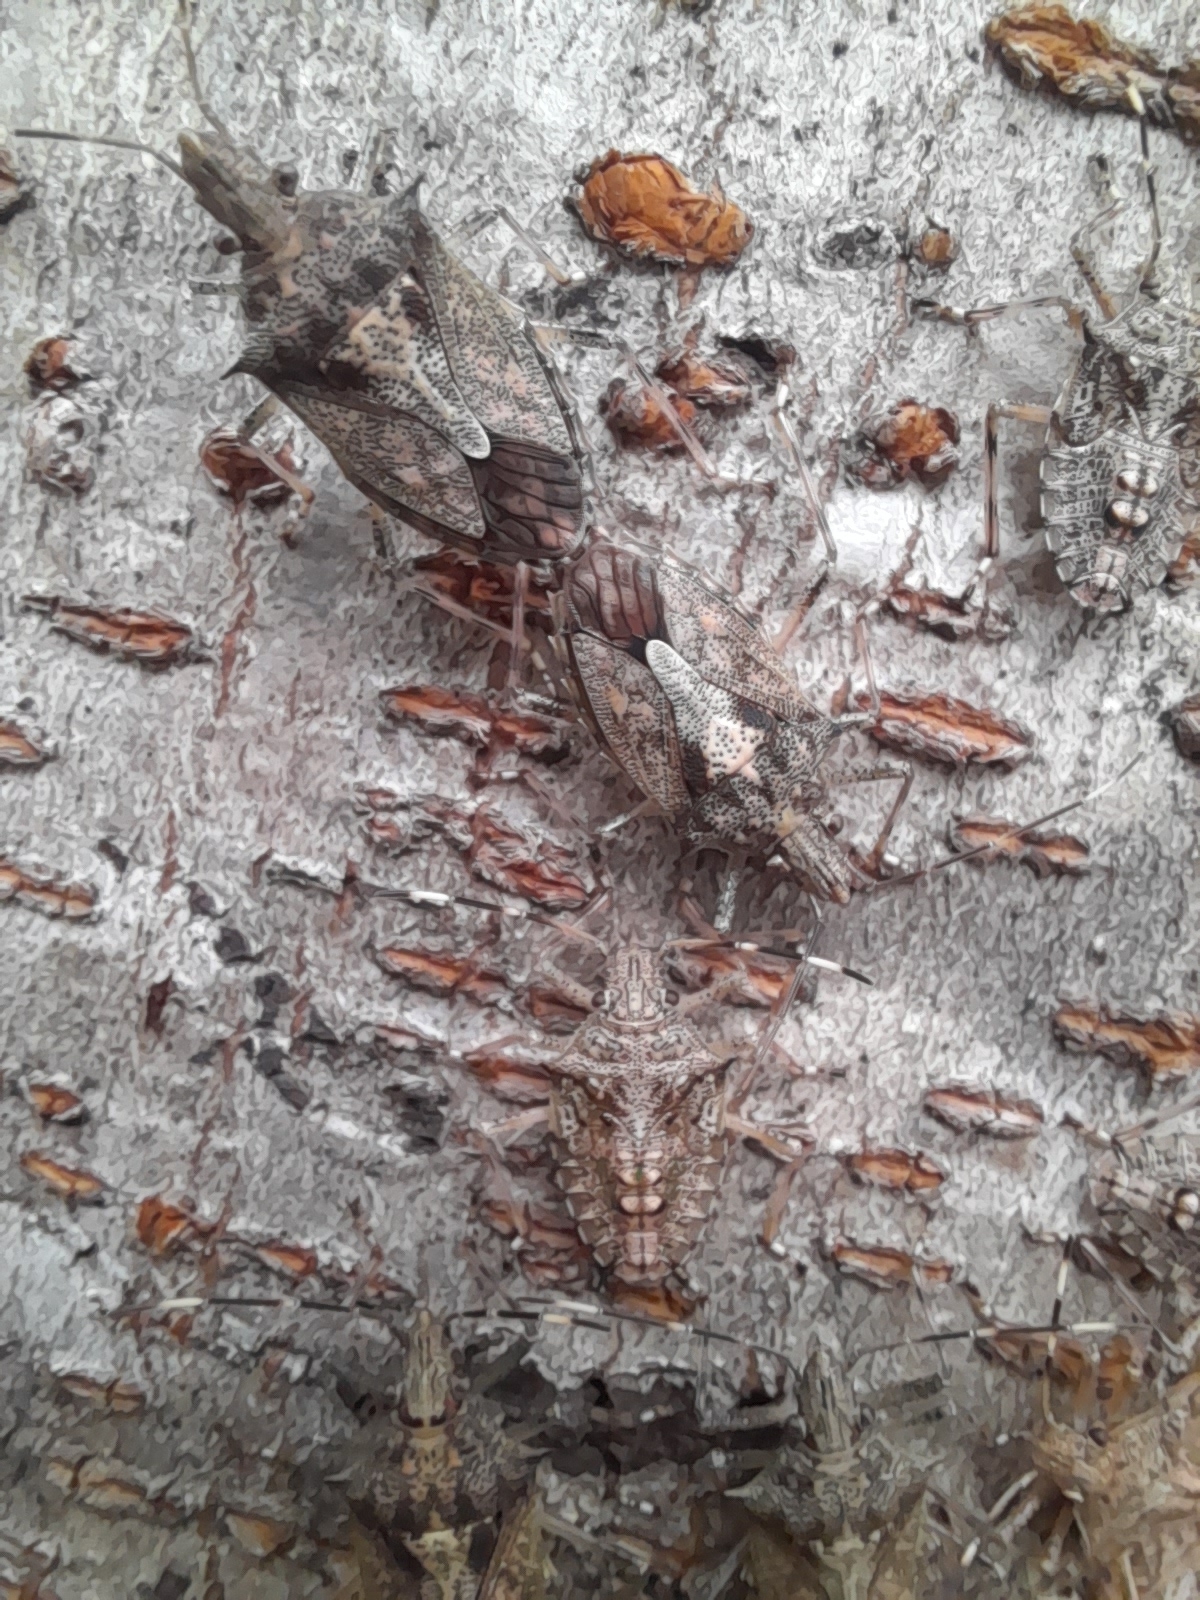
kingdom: Animalia
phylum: Arthropoda
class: Insecta
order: Hemiptera
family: Pentatomidae
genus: Bromocoris
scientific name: Bromocoris
